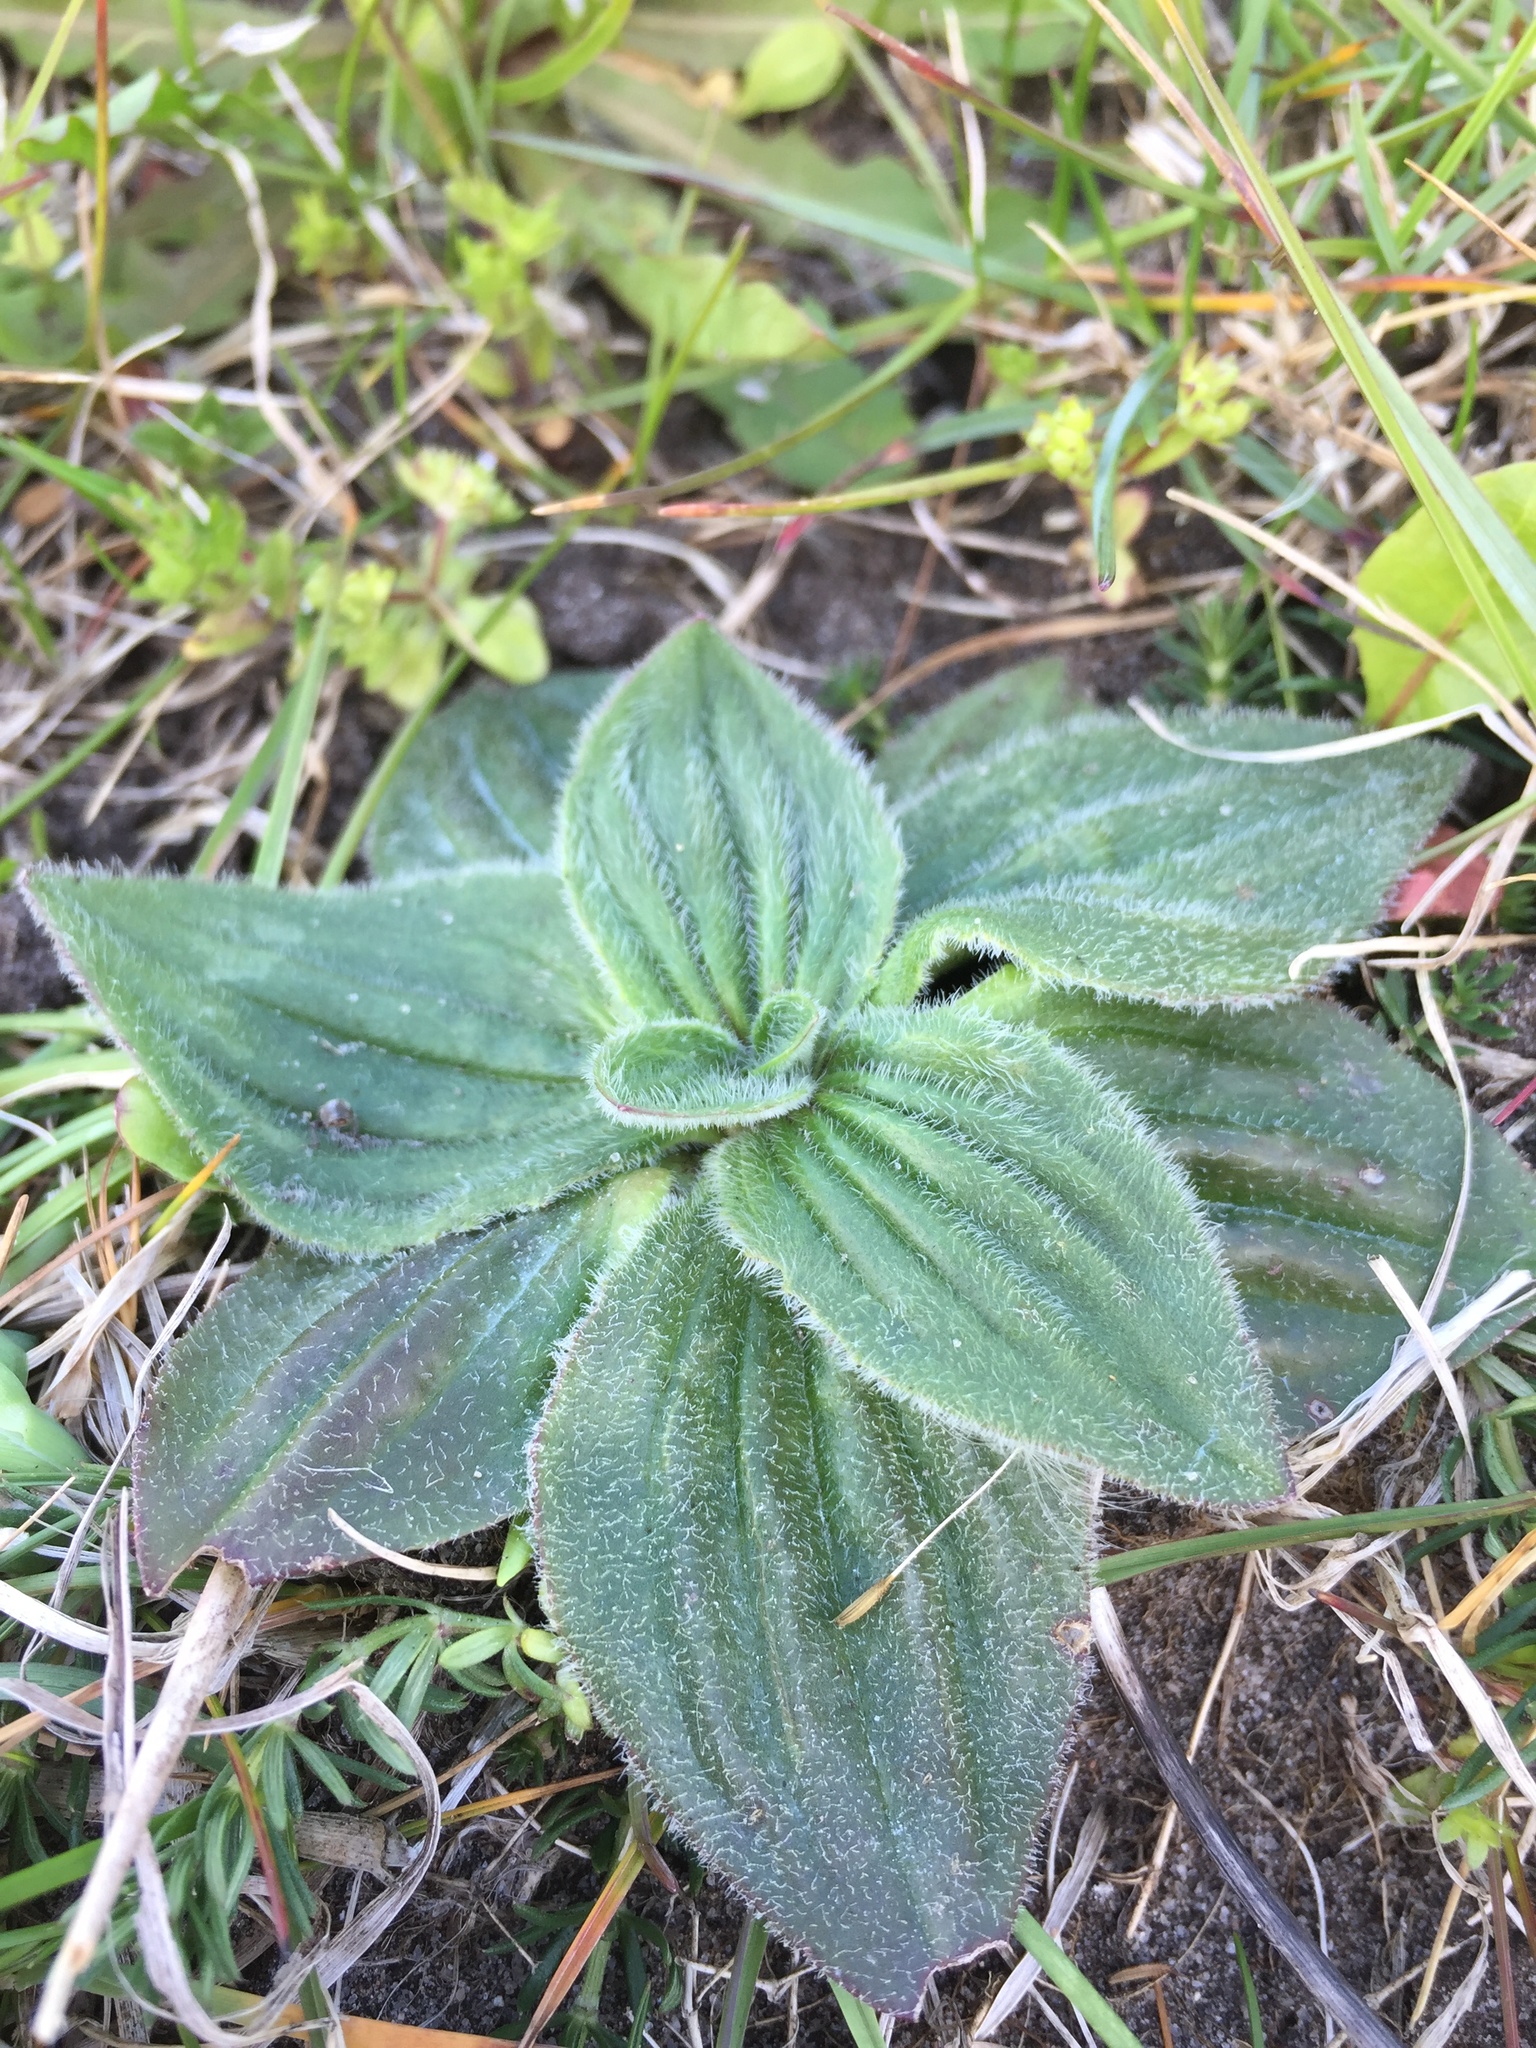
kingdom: Plantae
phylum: Tracheophyta
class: Magnoliopsida
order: Lamiales
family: Plantaginaceae
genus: Plantago
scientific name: Plantago media
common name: Hoary plantain
